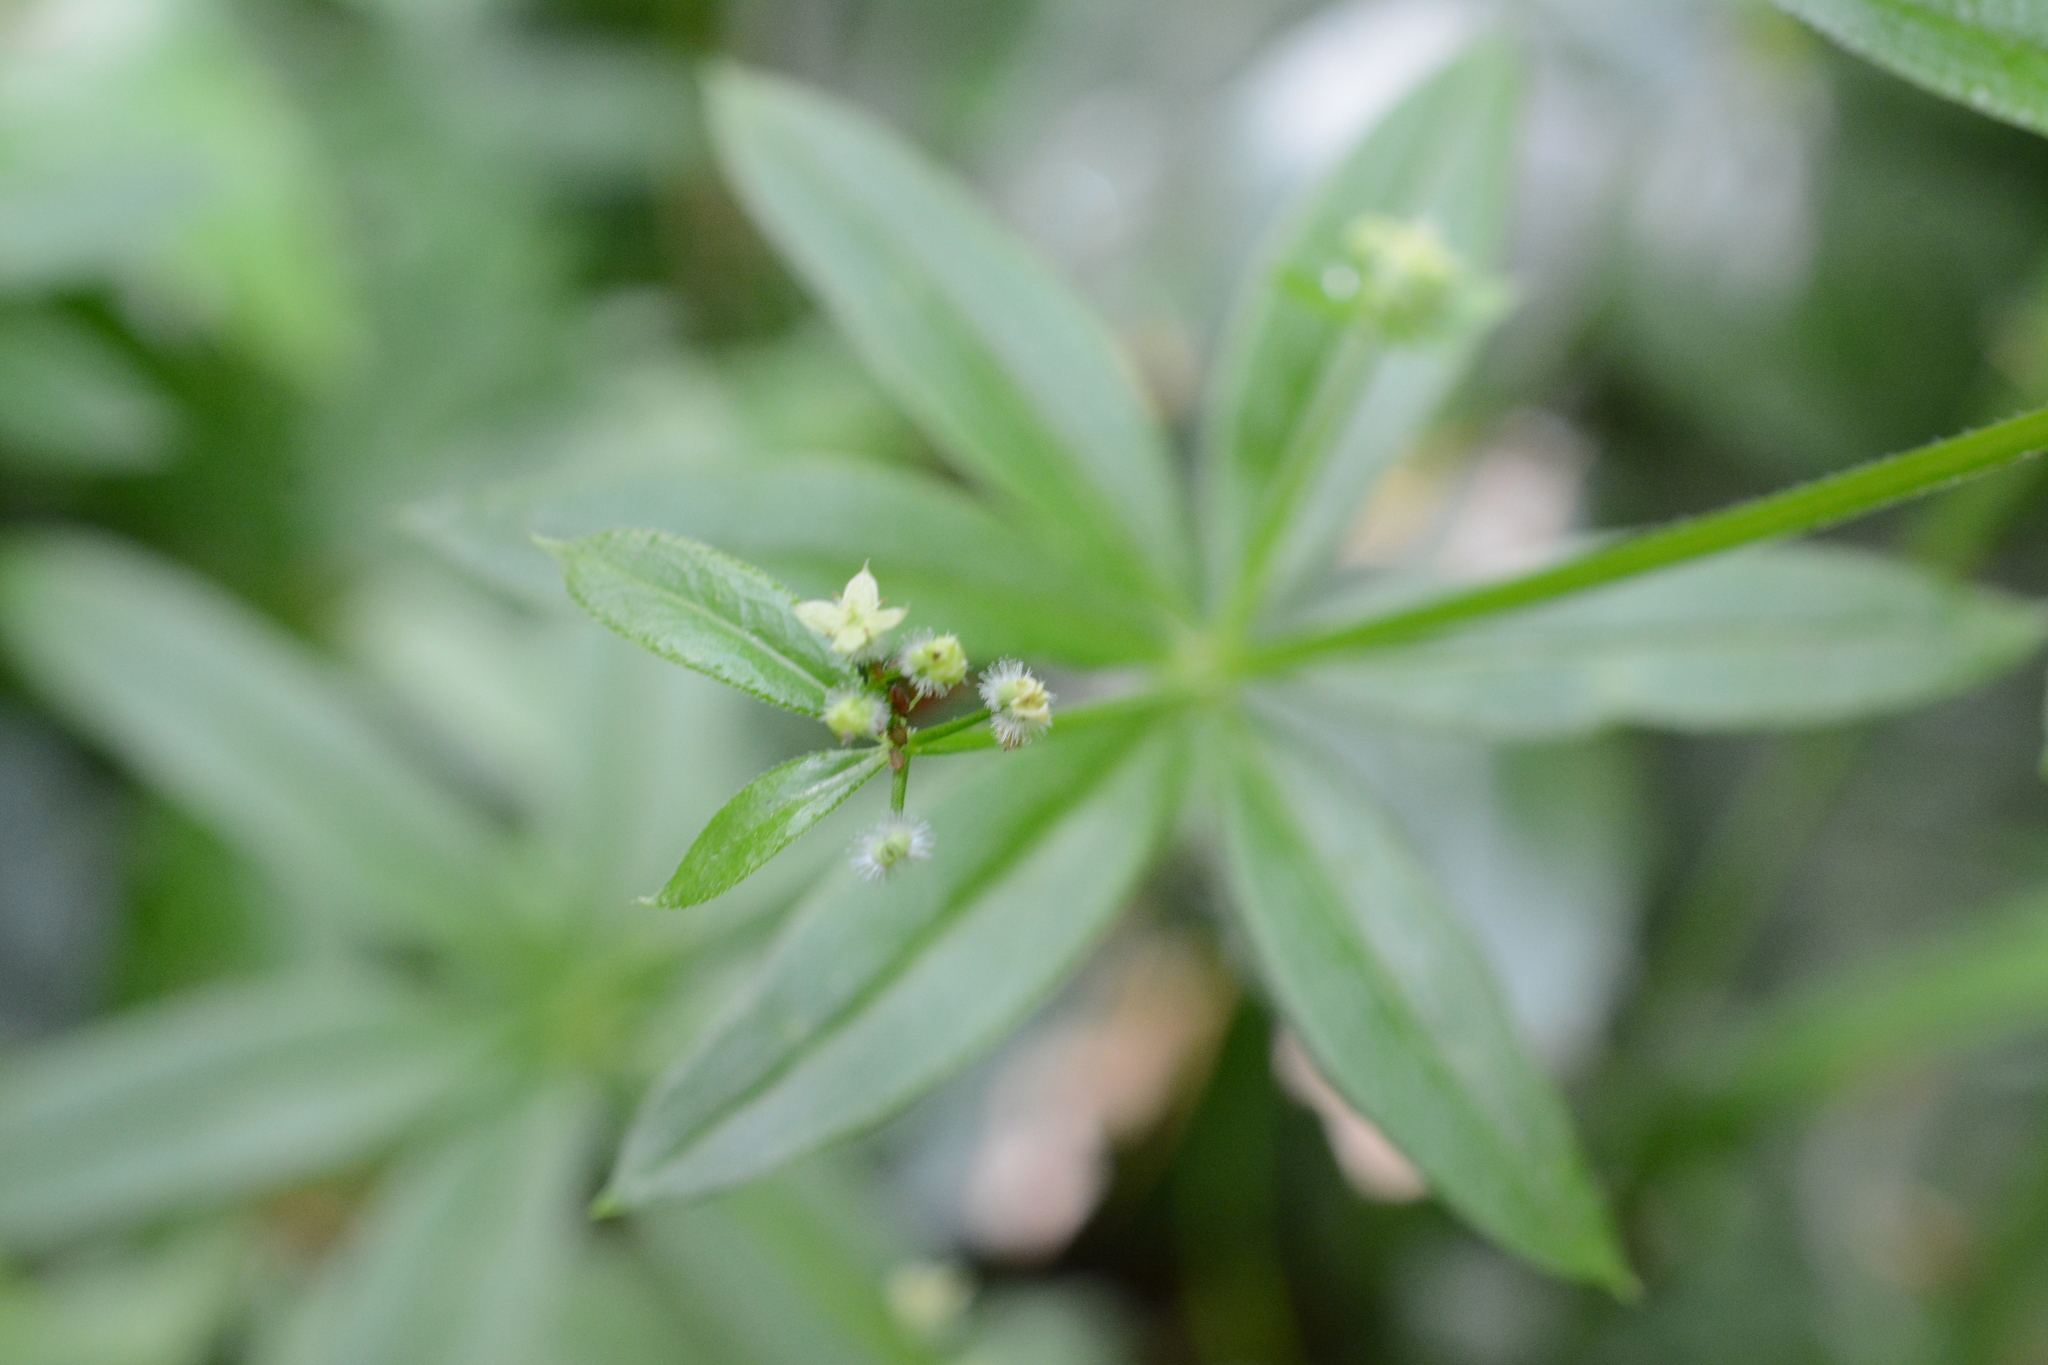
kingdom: Plantae
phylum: Tracheophyta
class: Magnoliopsida
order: Gentianales
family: Rubiaceae
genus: Galium
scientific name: Galium triflorum
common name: Fragrant bedstraw
